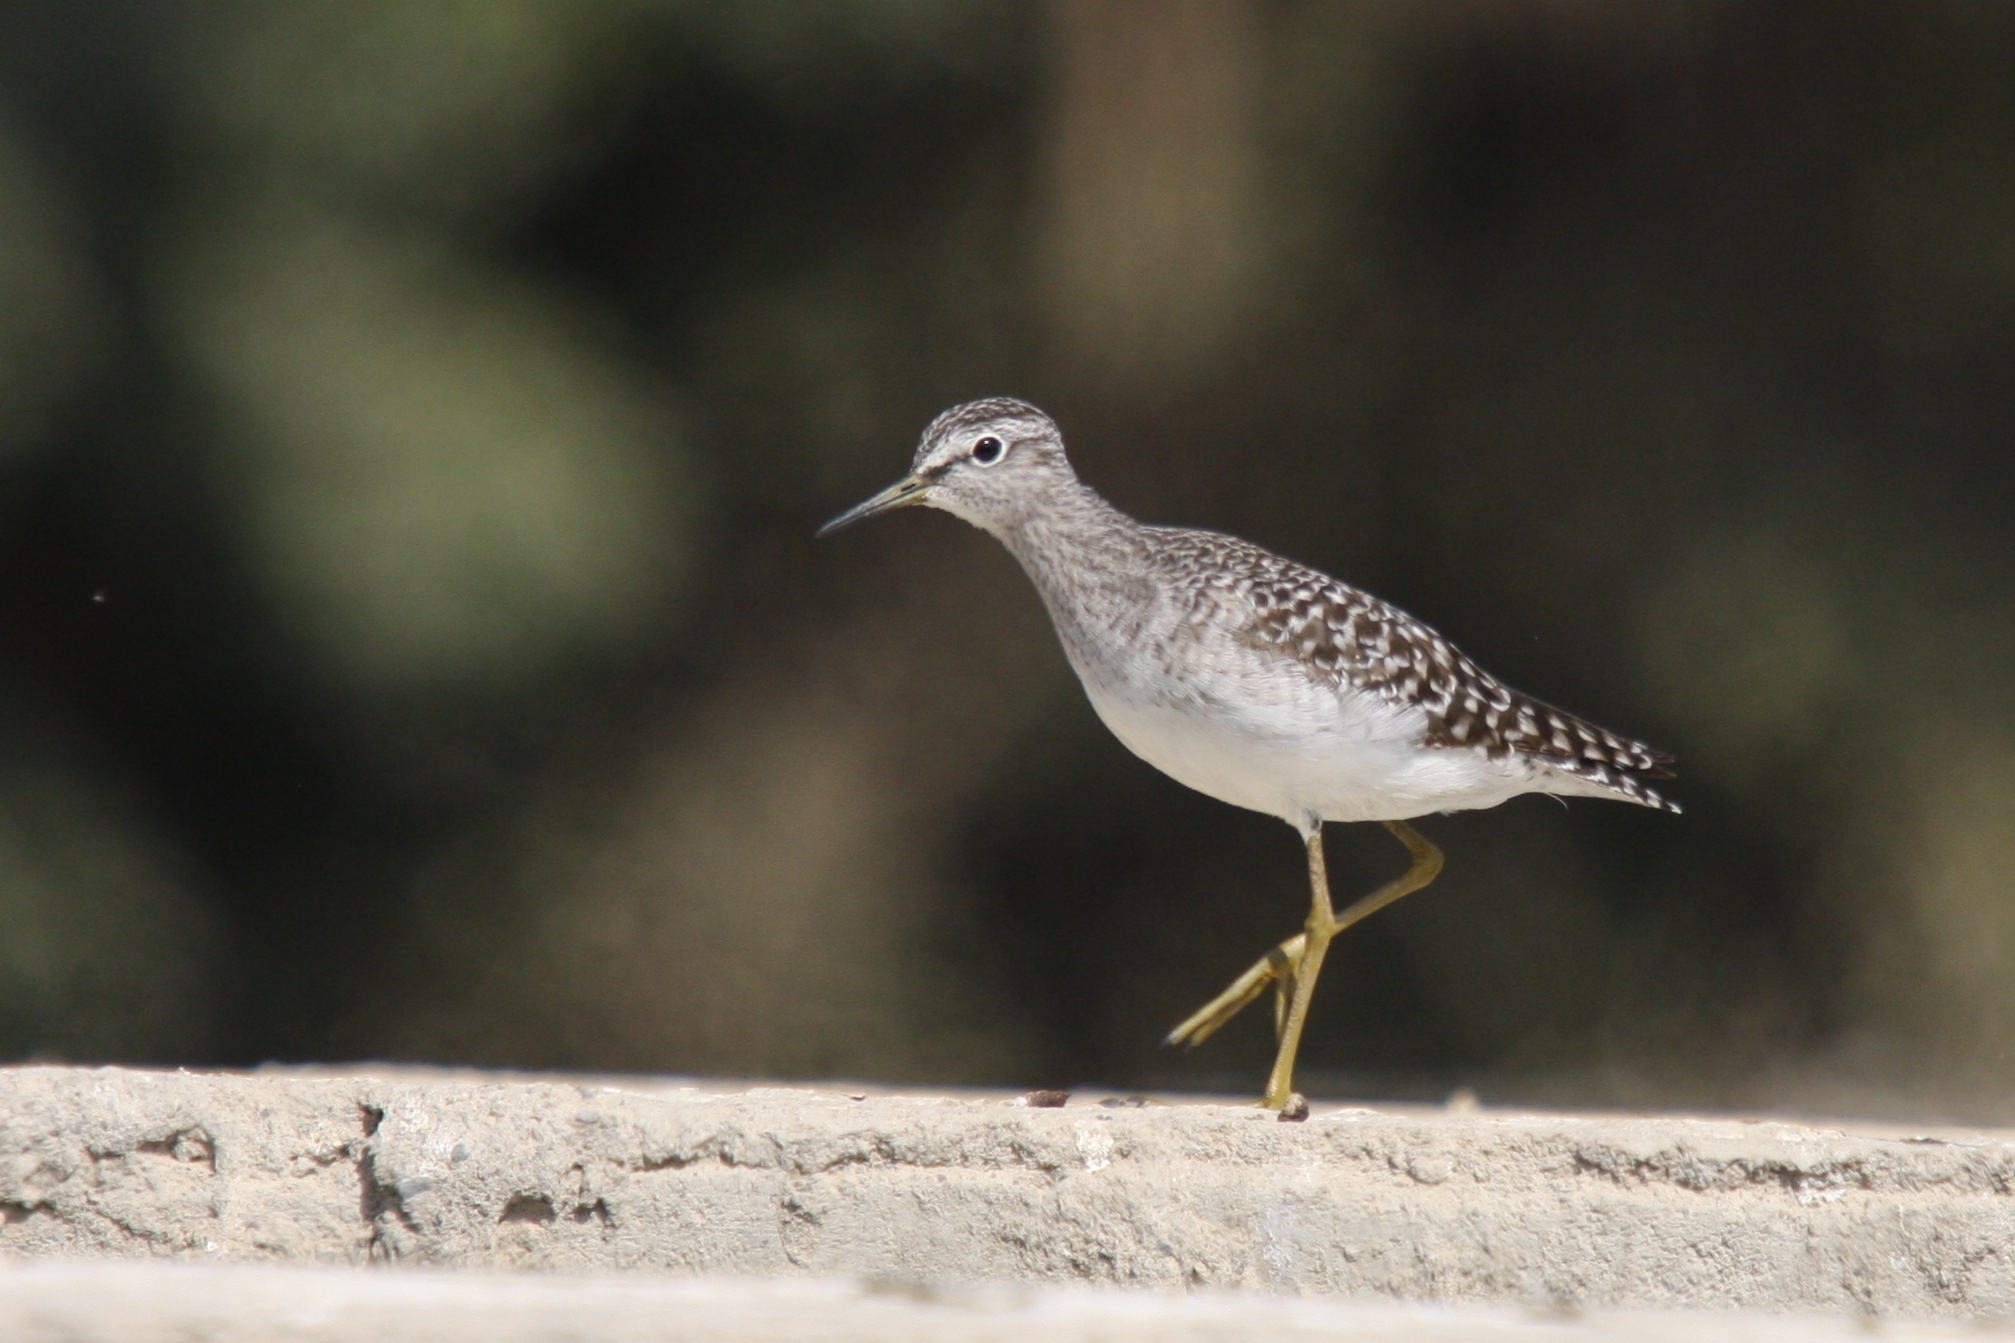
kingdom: Animalia
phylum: Chordata
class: Aves
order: Charadriiformes
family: Scolopacidae
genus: Tringa
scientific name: Tringa glareola
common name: Wood sandpiper
